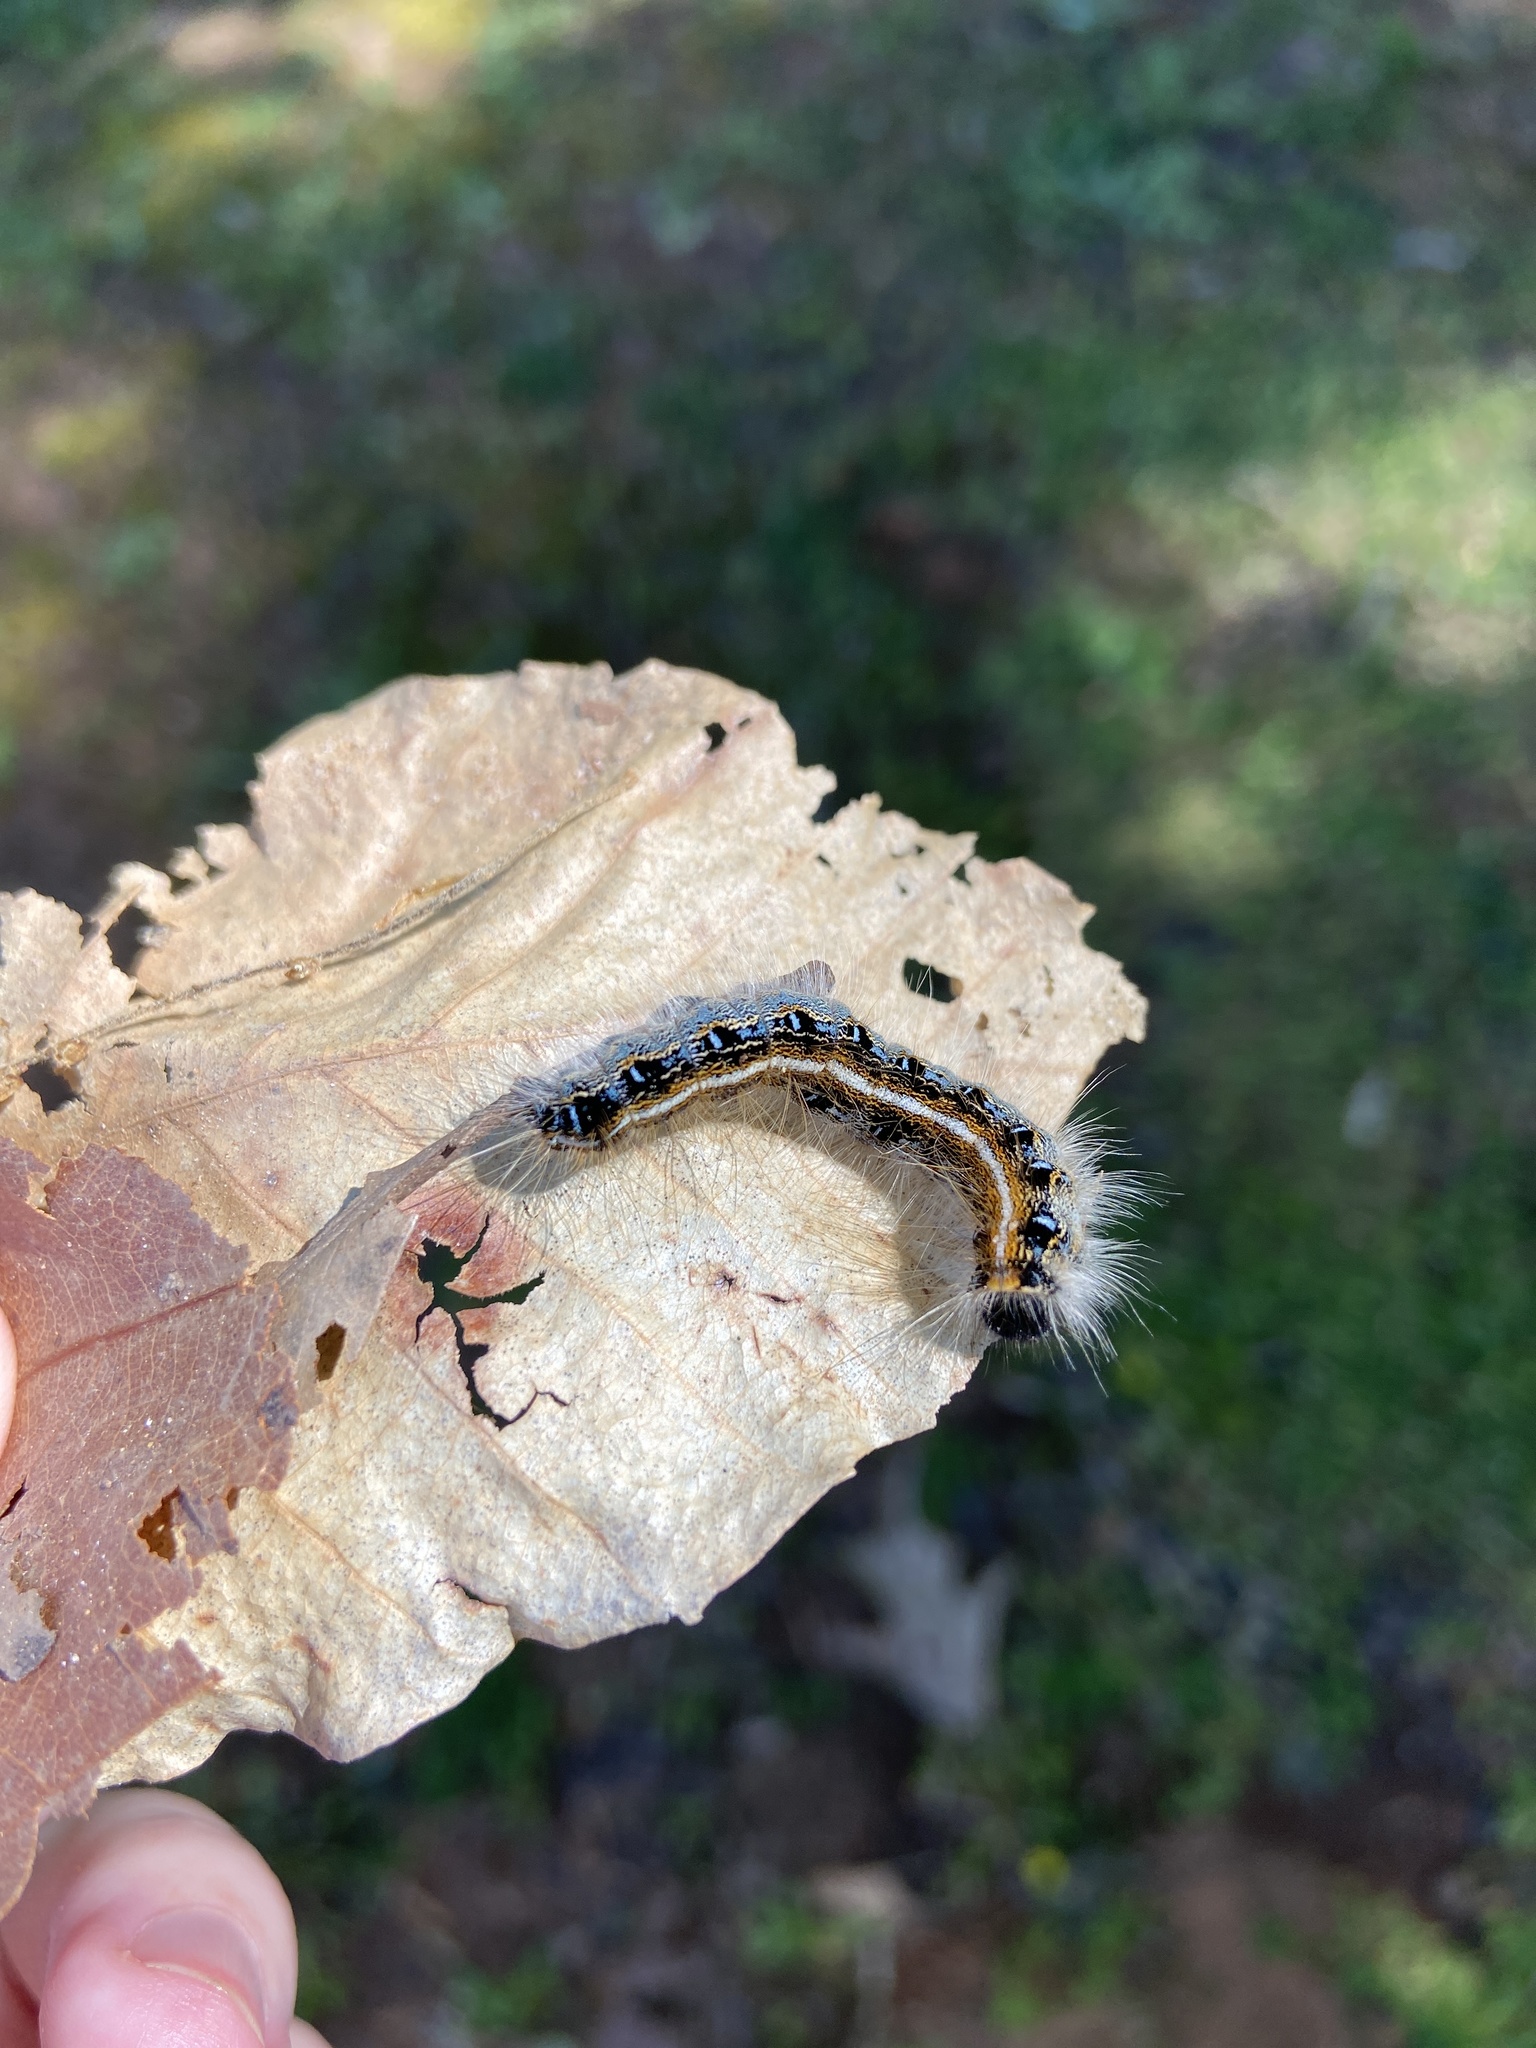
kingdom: Animalia
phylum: Arthropoda
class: Insecta
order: Lepidoptera
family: Lasiocampidae
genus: Malacosoma
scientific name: Malacosoma americana
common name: Eastern tent caterpillar moth
